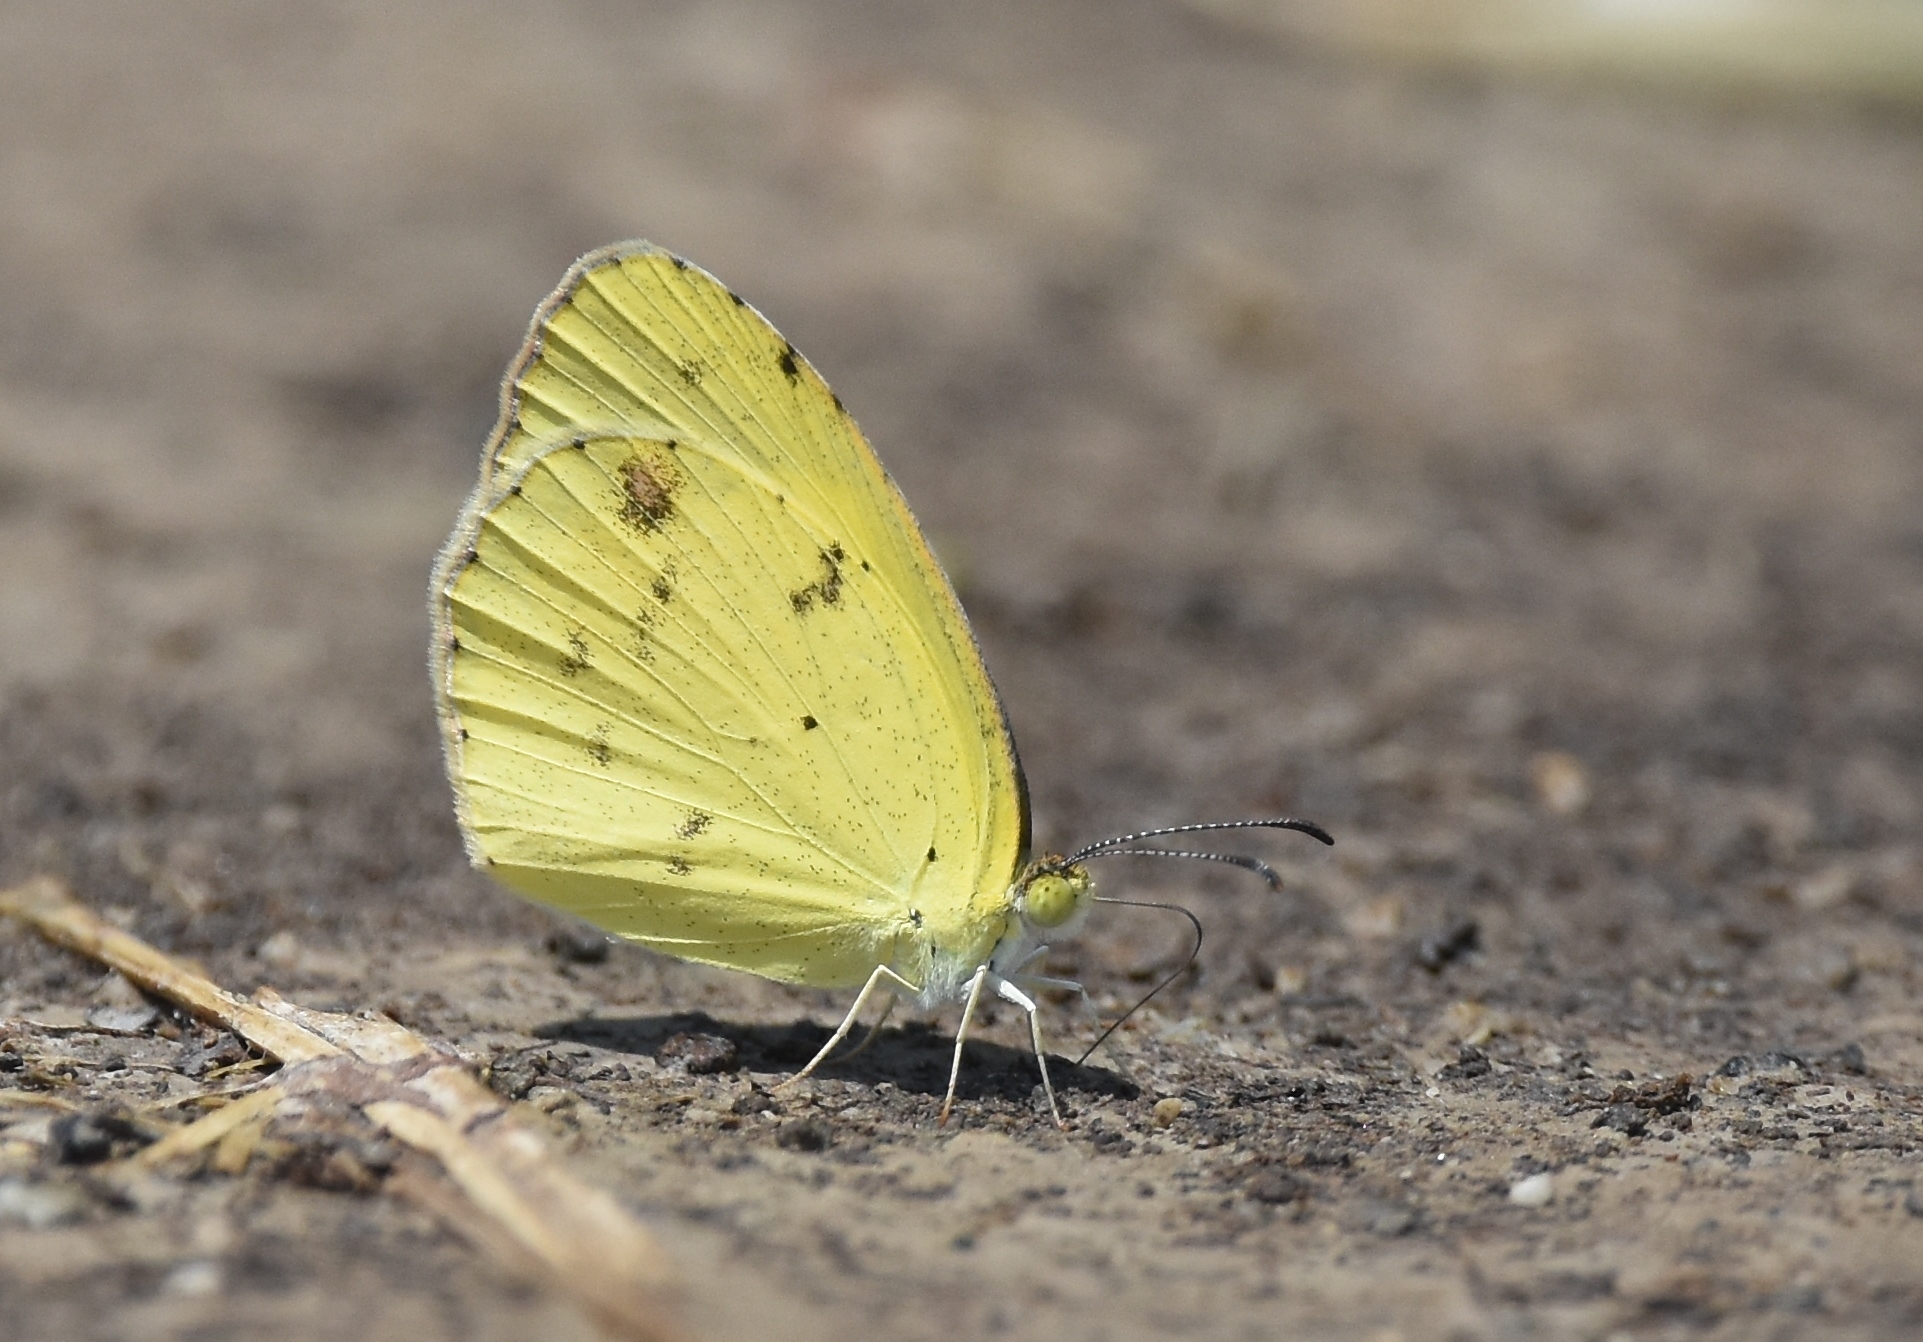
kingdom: Animalia
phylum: Arthropoda
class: Insecta
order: Lepidoptera
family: Pieridae
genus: Pyrisitia
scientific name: Pyrisitia lisa
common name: Little yellow
